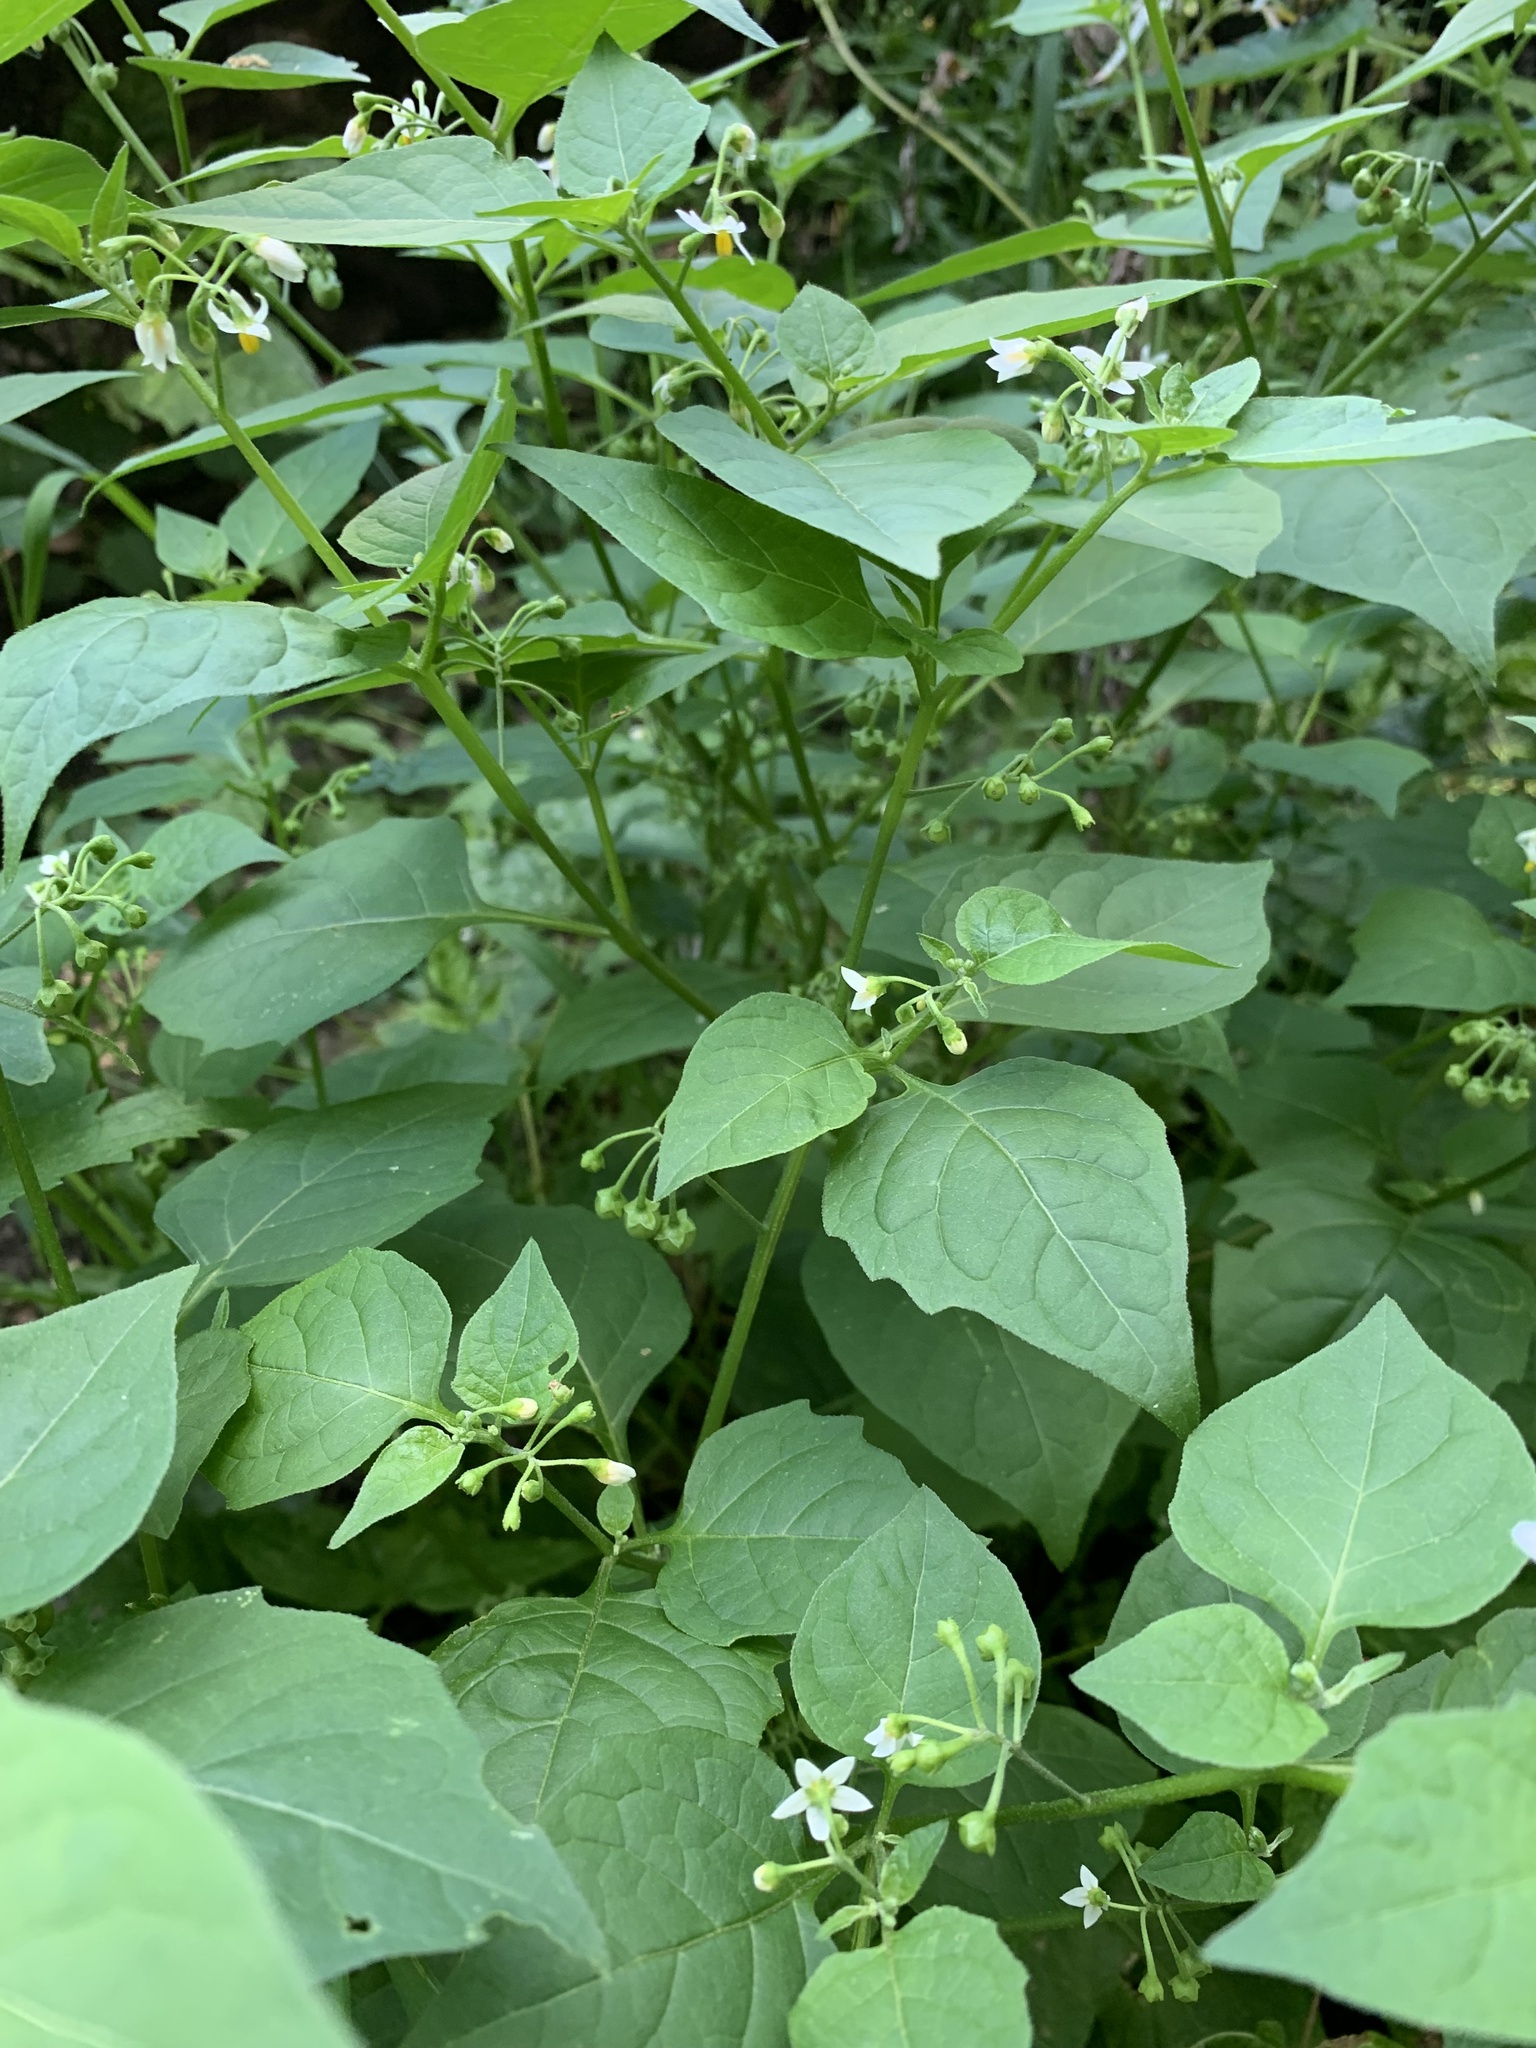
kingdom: Plantae
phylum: Tracheophyta
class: Magnoliopsida
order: Solanales
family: Solanaceae
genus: Solanum
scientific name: Solanum nigrum
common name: Black nightshade
